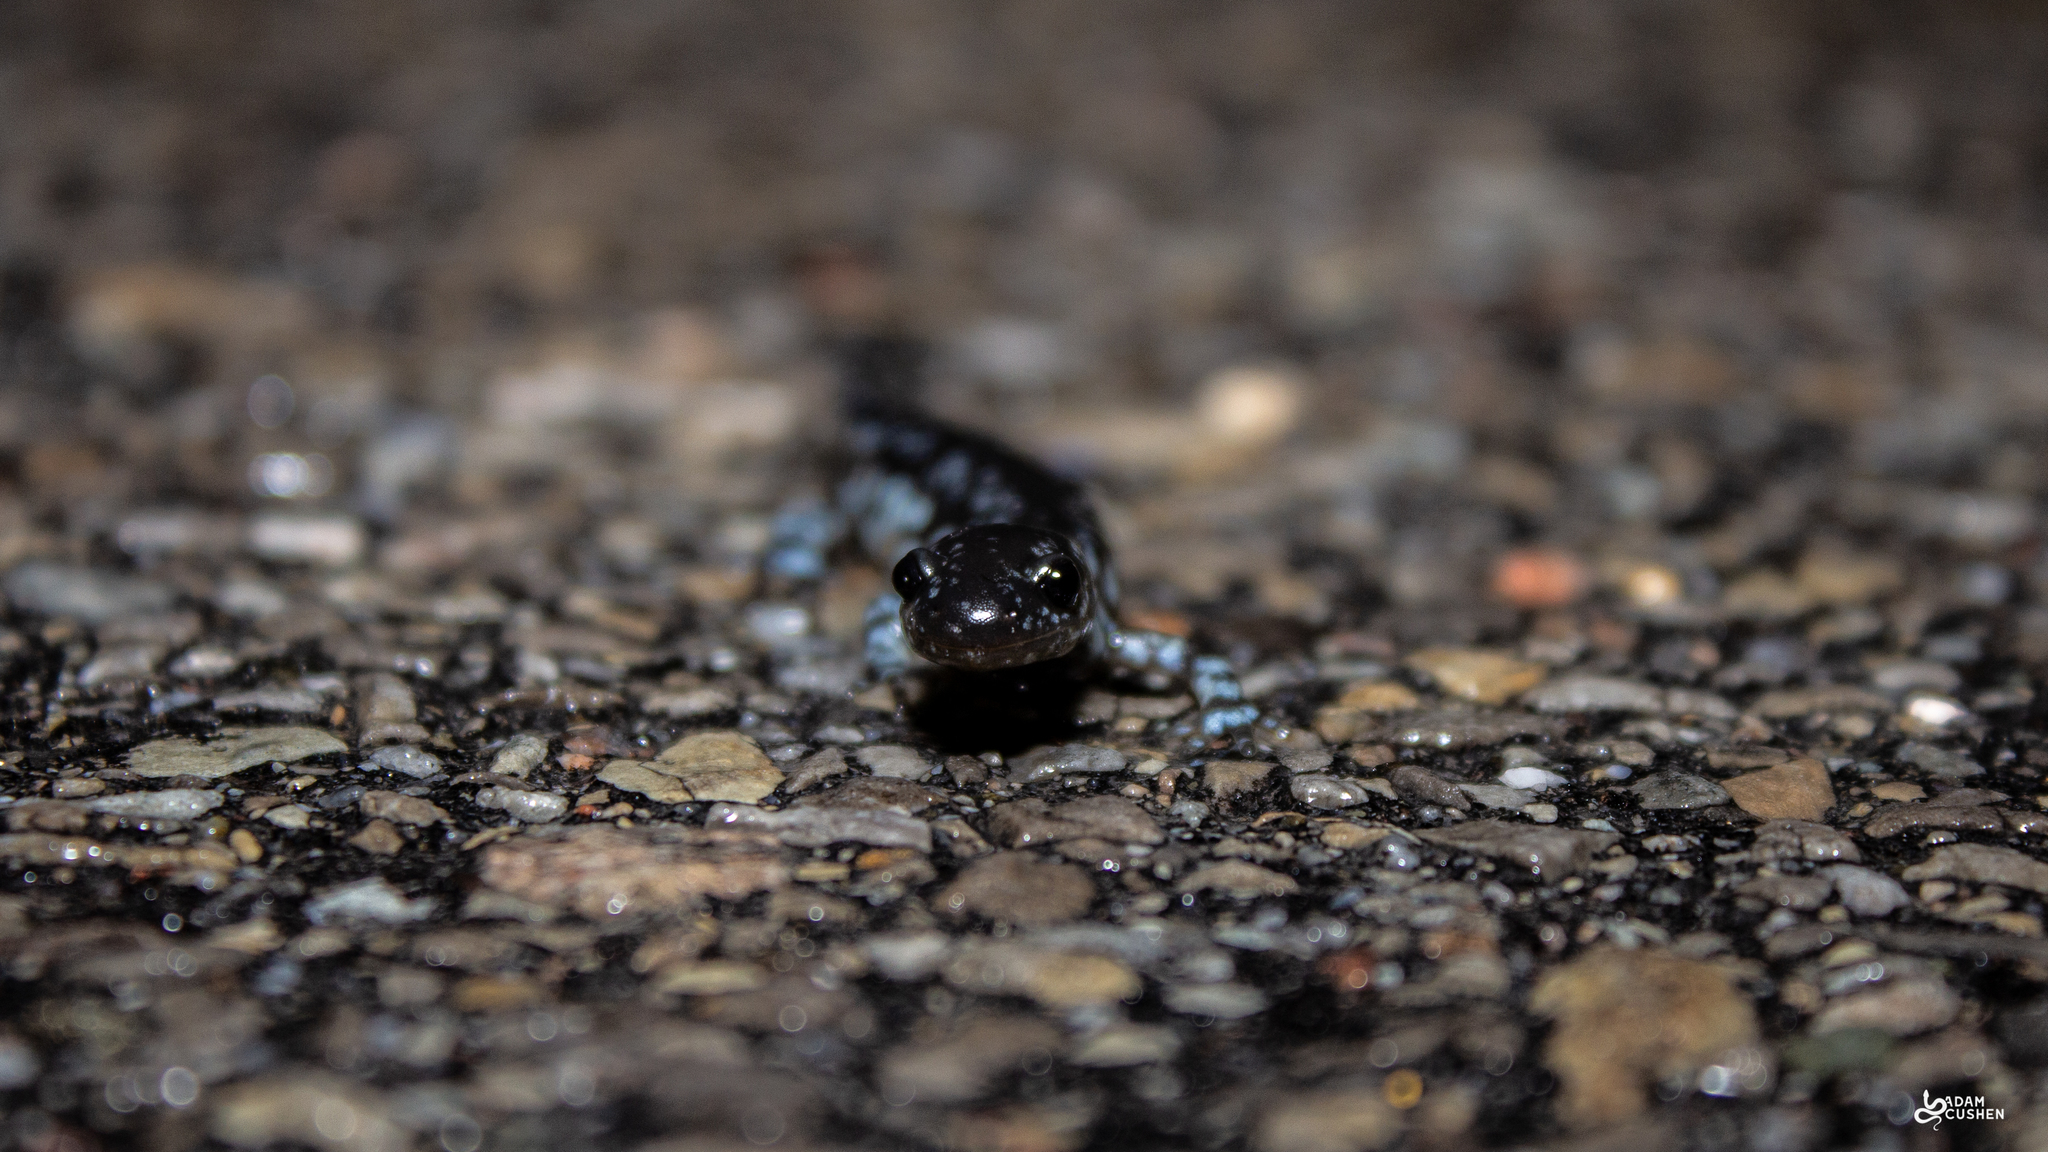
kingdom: Animalia
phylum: Chordata
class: Amphibia
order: Caudata
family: Ambystomatidae
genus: Ambystoma
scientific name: Ambystoma laterale
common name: Blue-spotted salamander
